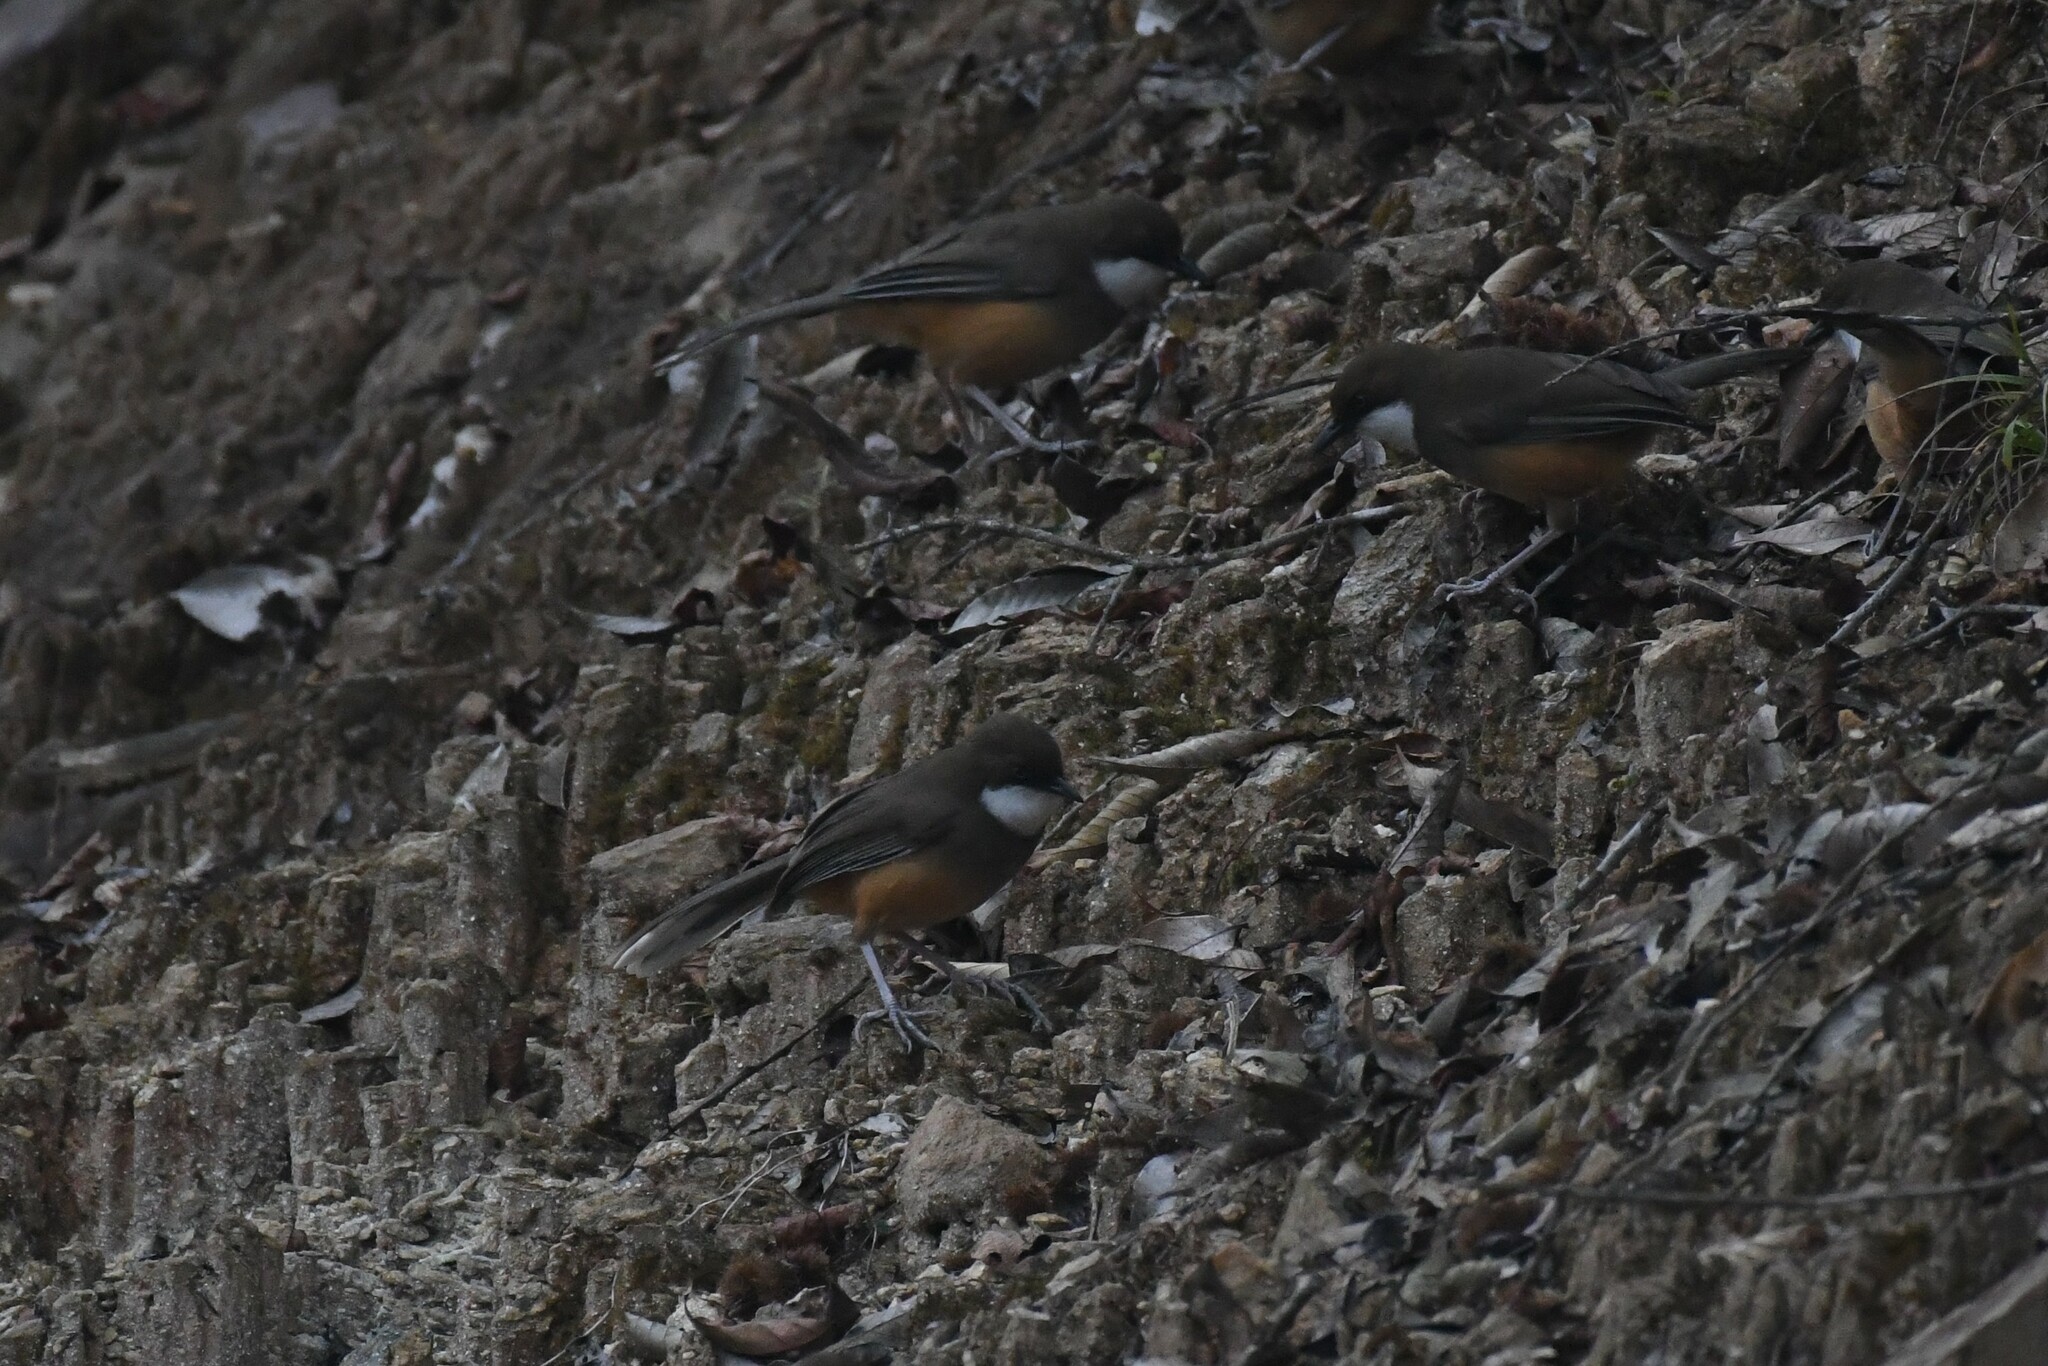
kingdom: Animalia
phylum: Chordata
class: Aves
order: Passeriformes
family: Leiothrichidae
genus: Garrulax
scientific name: Garrulax albogularis
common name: White-throated laughingthrush
